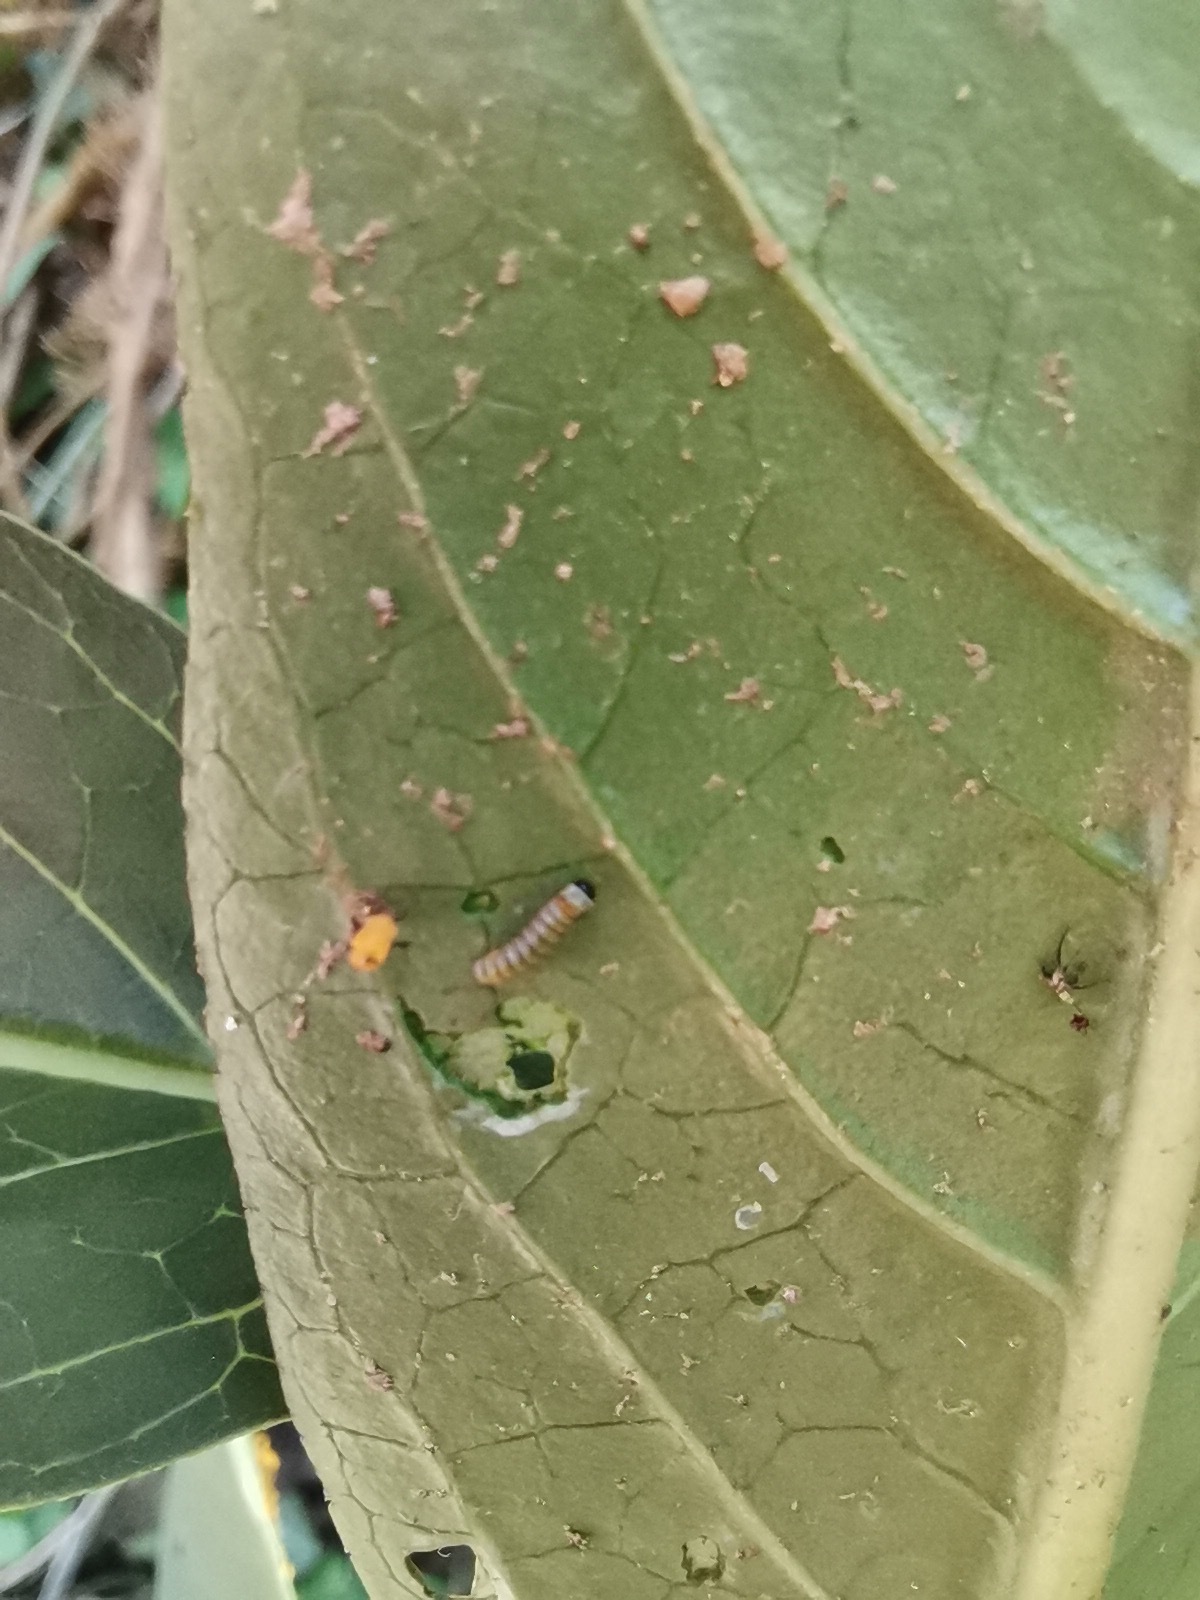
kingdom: Animalia
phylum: Arthropoda
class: Insecta
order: Lepidoptera
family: Nymphalidae
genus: Danaus
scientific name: Danaus plexippus
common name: Monarch
